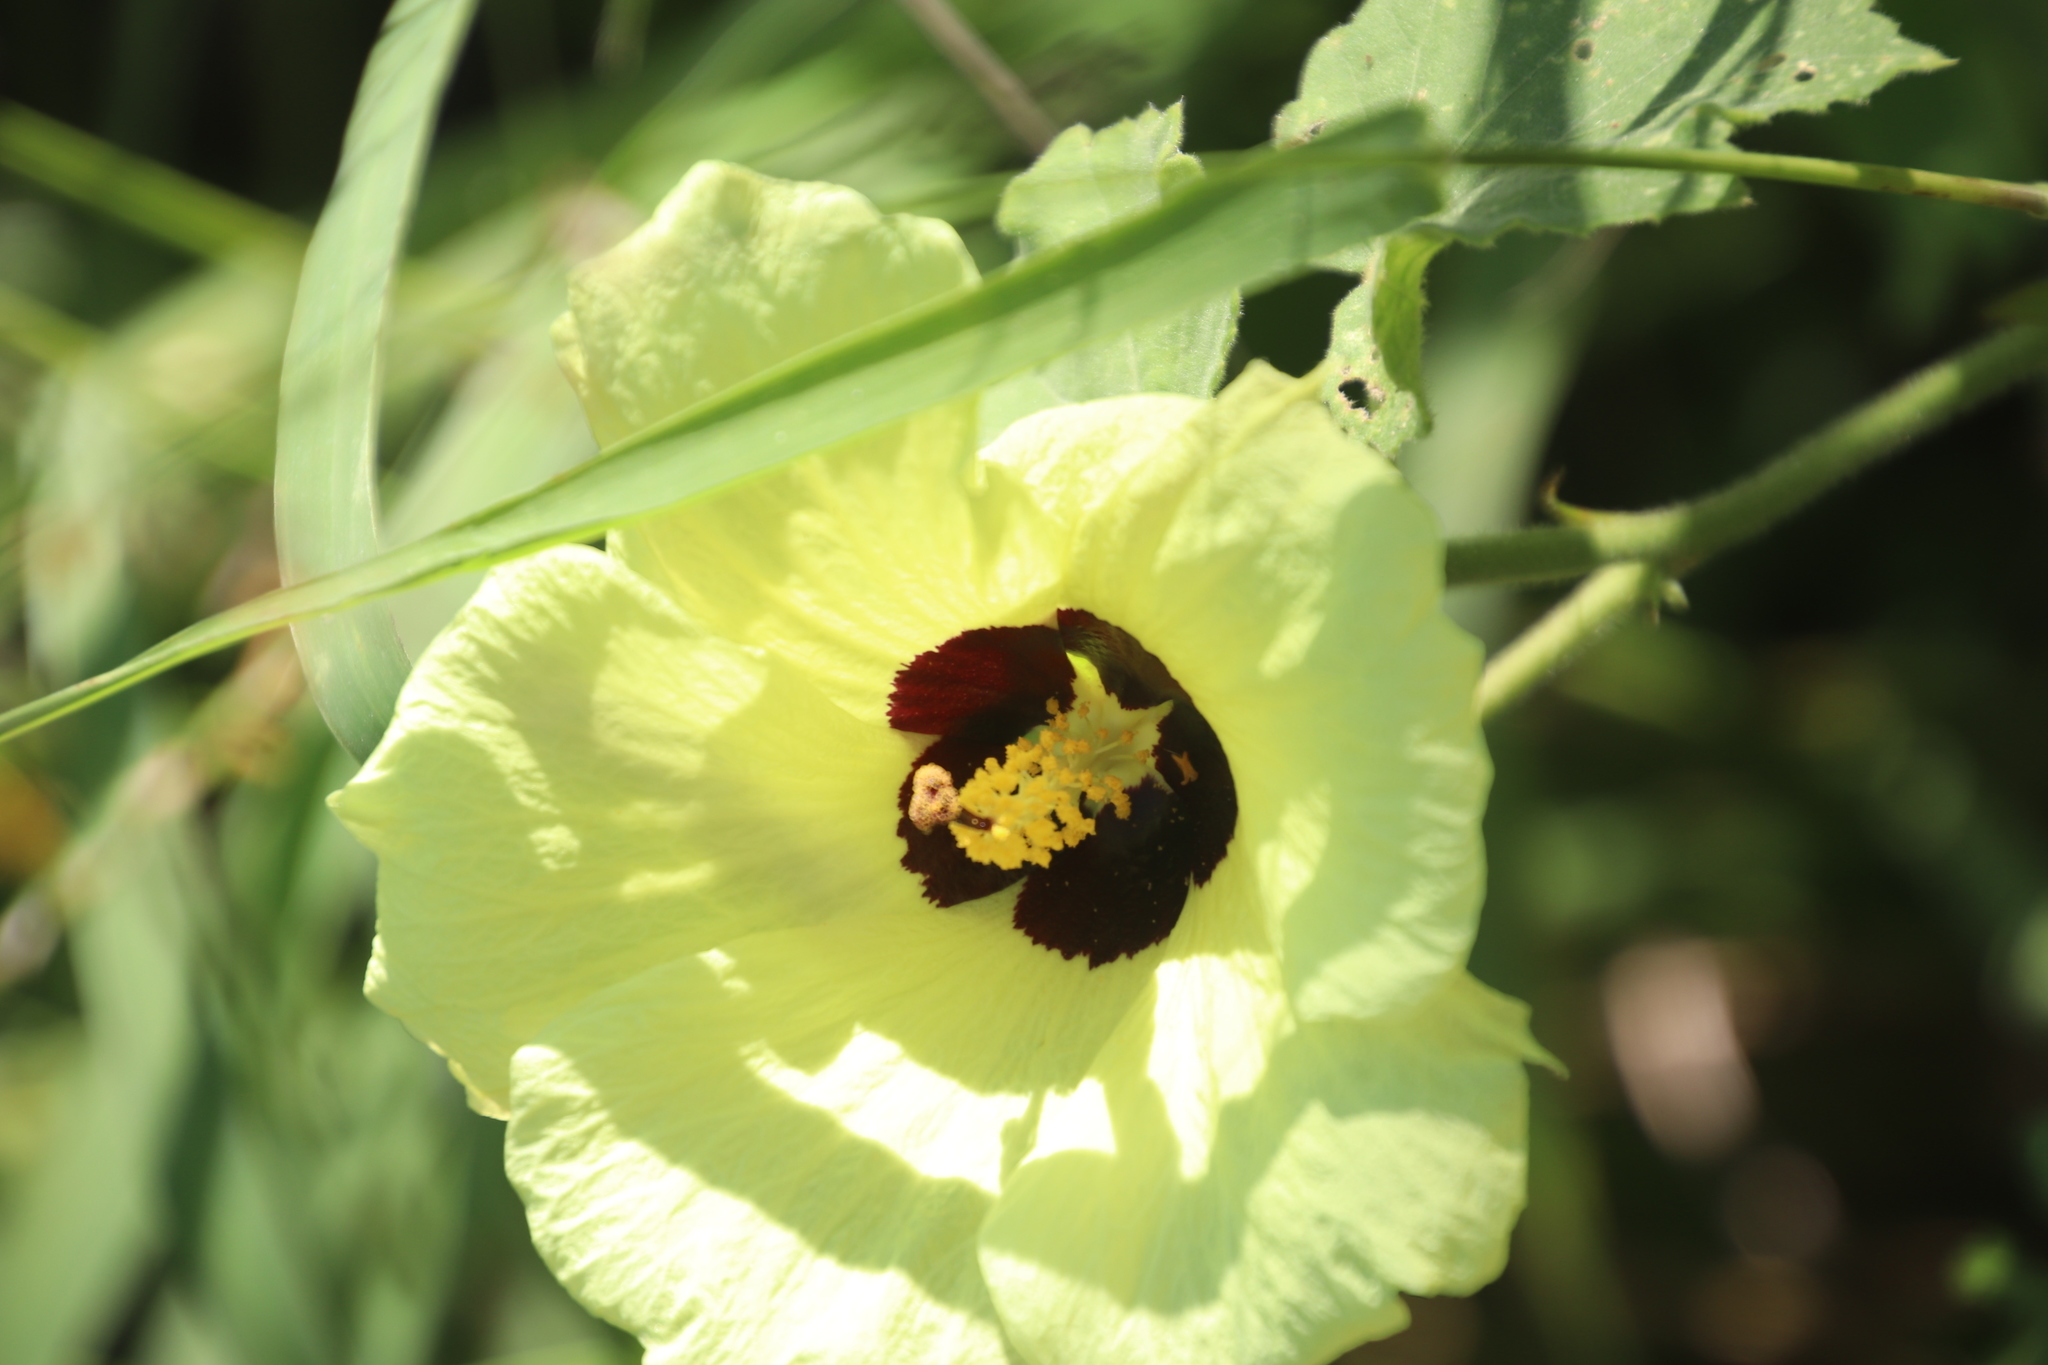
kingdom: Plantae
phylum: Tracheophyta
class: Magnoliopsida
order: Malvales
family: Malvaceae
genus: Hibiscus
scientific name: Hibiscus calyphyllus
